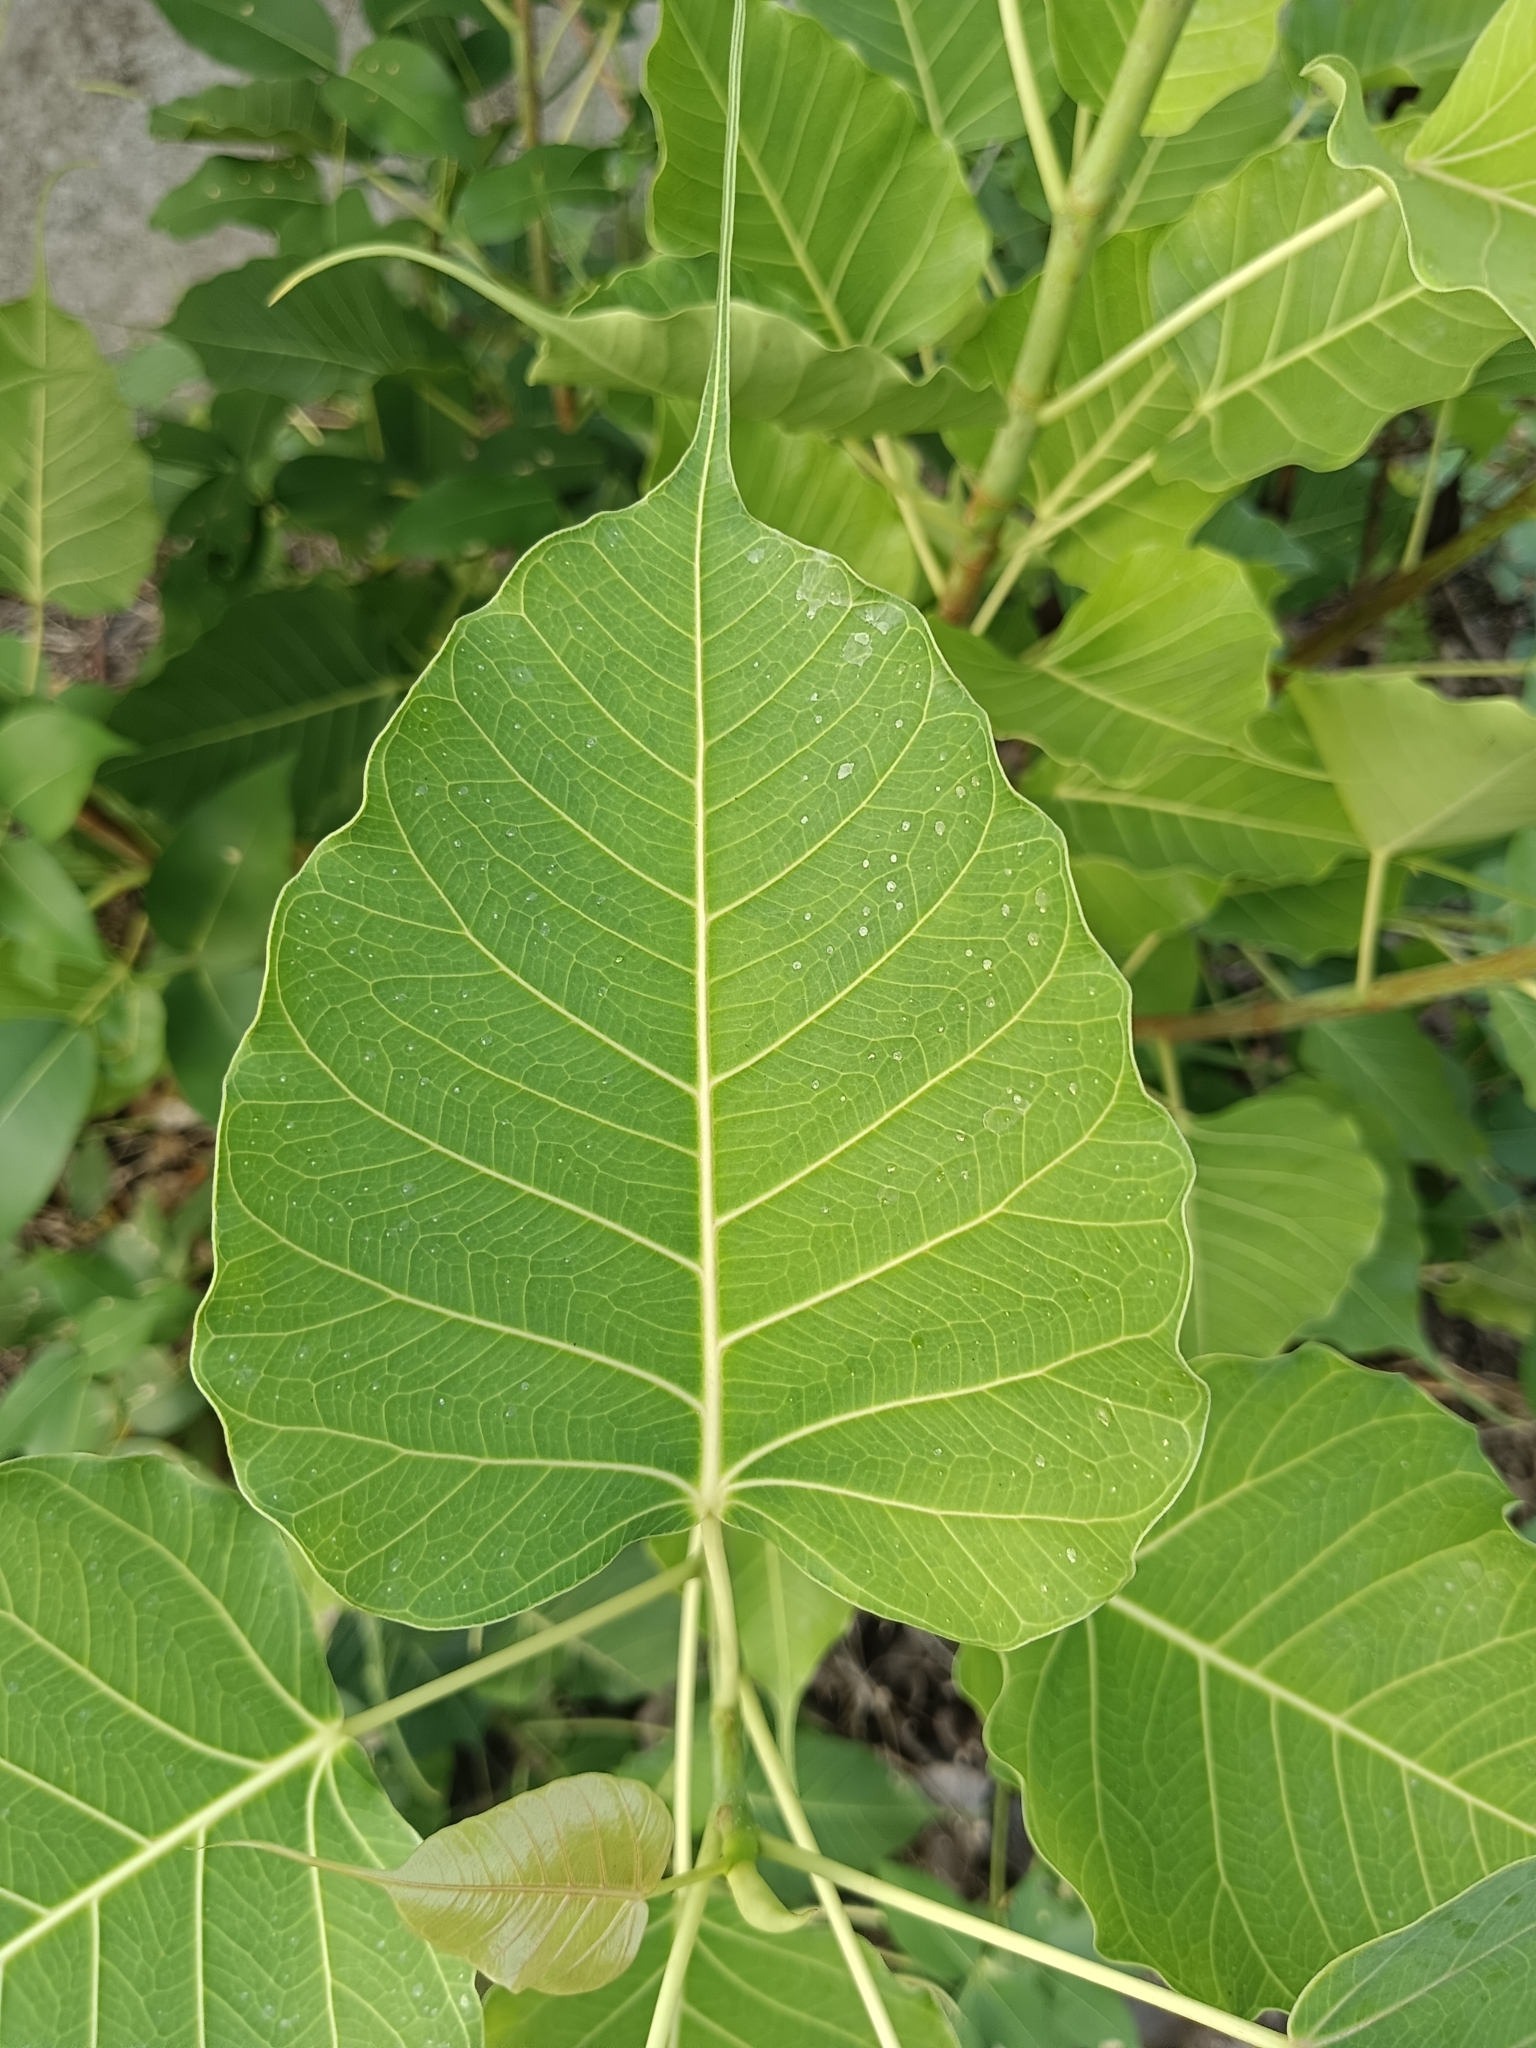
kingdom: Plantae
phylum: Tracheophyta
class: Magnoliopsida
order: Rosales
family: Moraceae
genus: Ficus
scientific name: Ficus religiosa
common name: Bodhi tree
